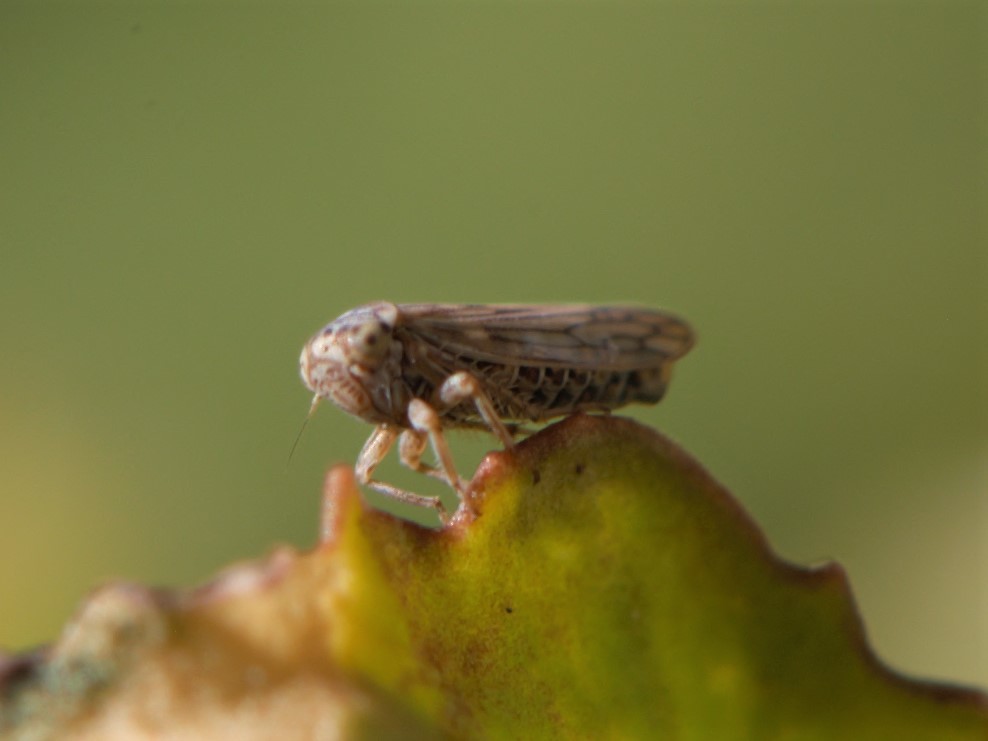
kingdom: Animalia
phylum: Arthropoda
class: Insecta
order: Hemiptera
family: Cicadellidae
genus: Ceratagallia
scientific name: Ceratagallia
